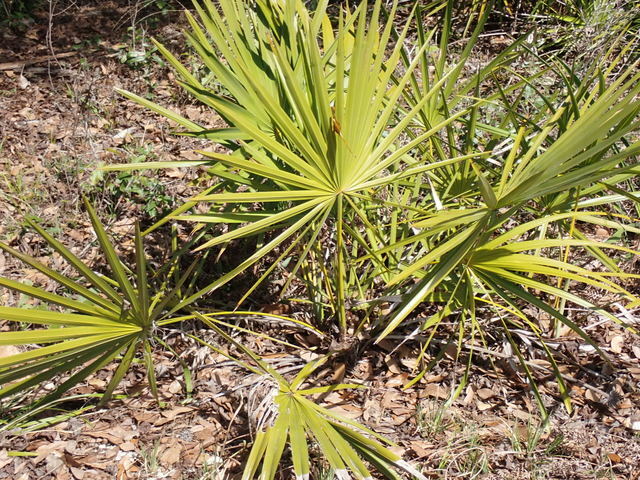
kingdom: Plantae
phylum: Tracheophyta
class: Liliopsida
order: Arecales
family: Arecaceae
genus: Serenoa
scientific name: Serenoa repens
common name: Saw-palmetto
